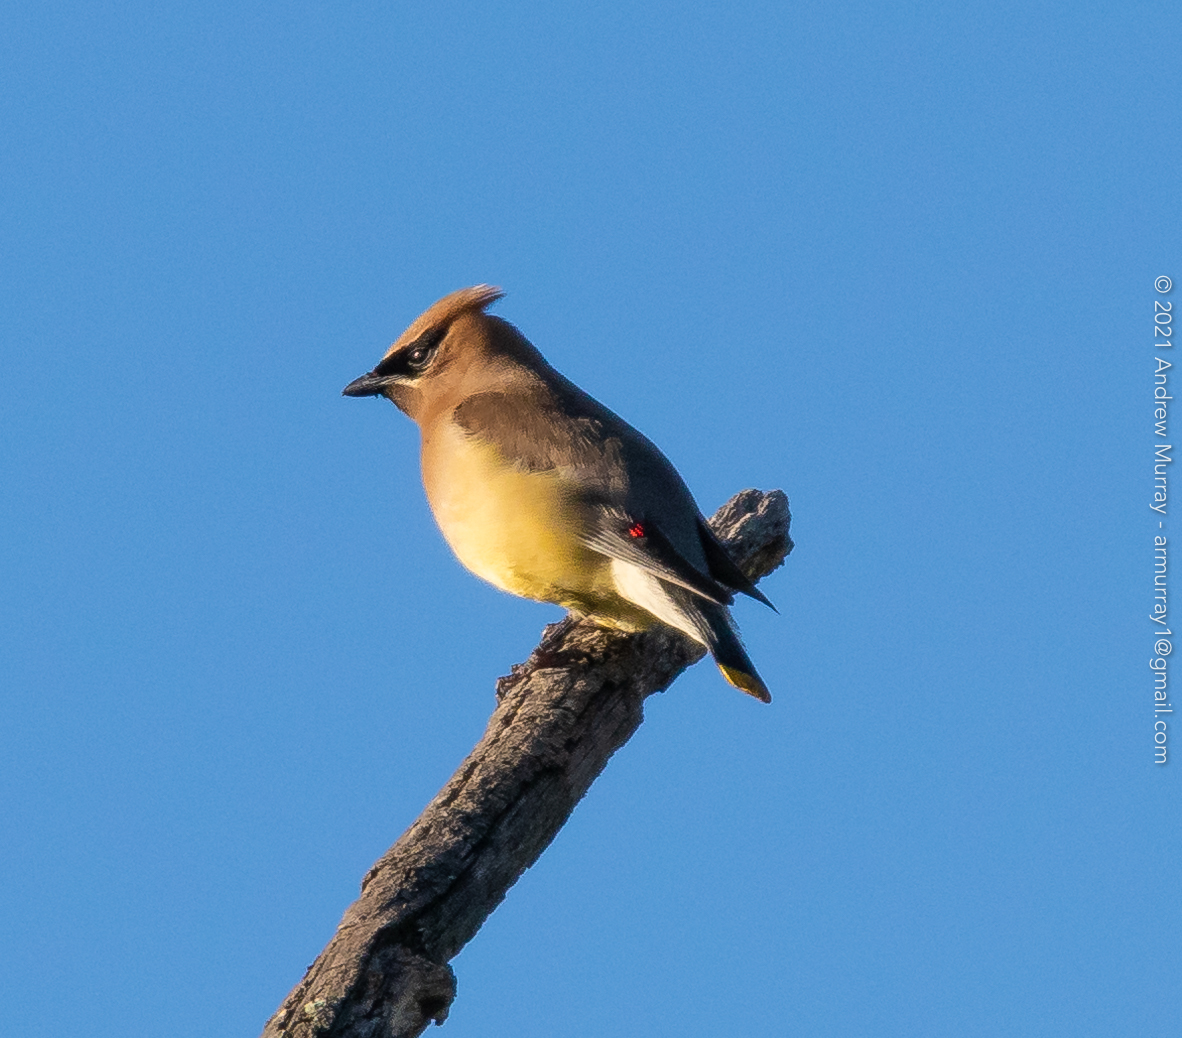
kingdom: Animalia
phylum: Chordata
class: Aves
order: Passeriformes
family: Bombycillidae
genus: Bombycilla
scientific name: Bombycilla cedrorum
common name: Cedar waxwing
